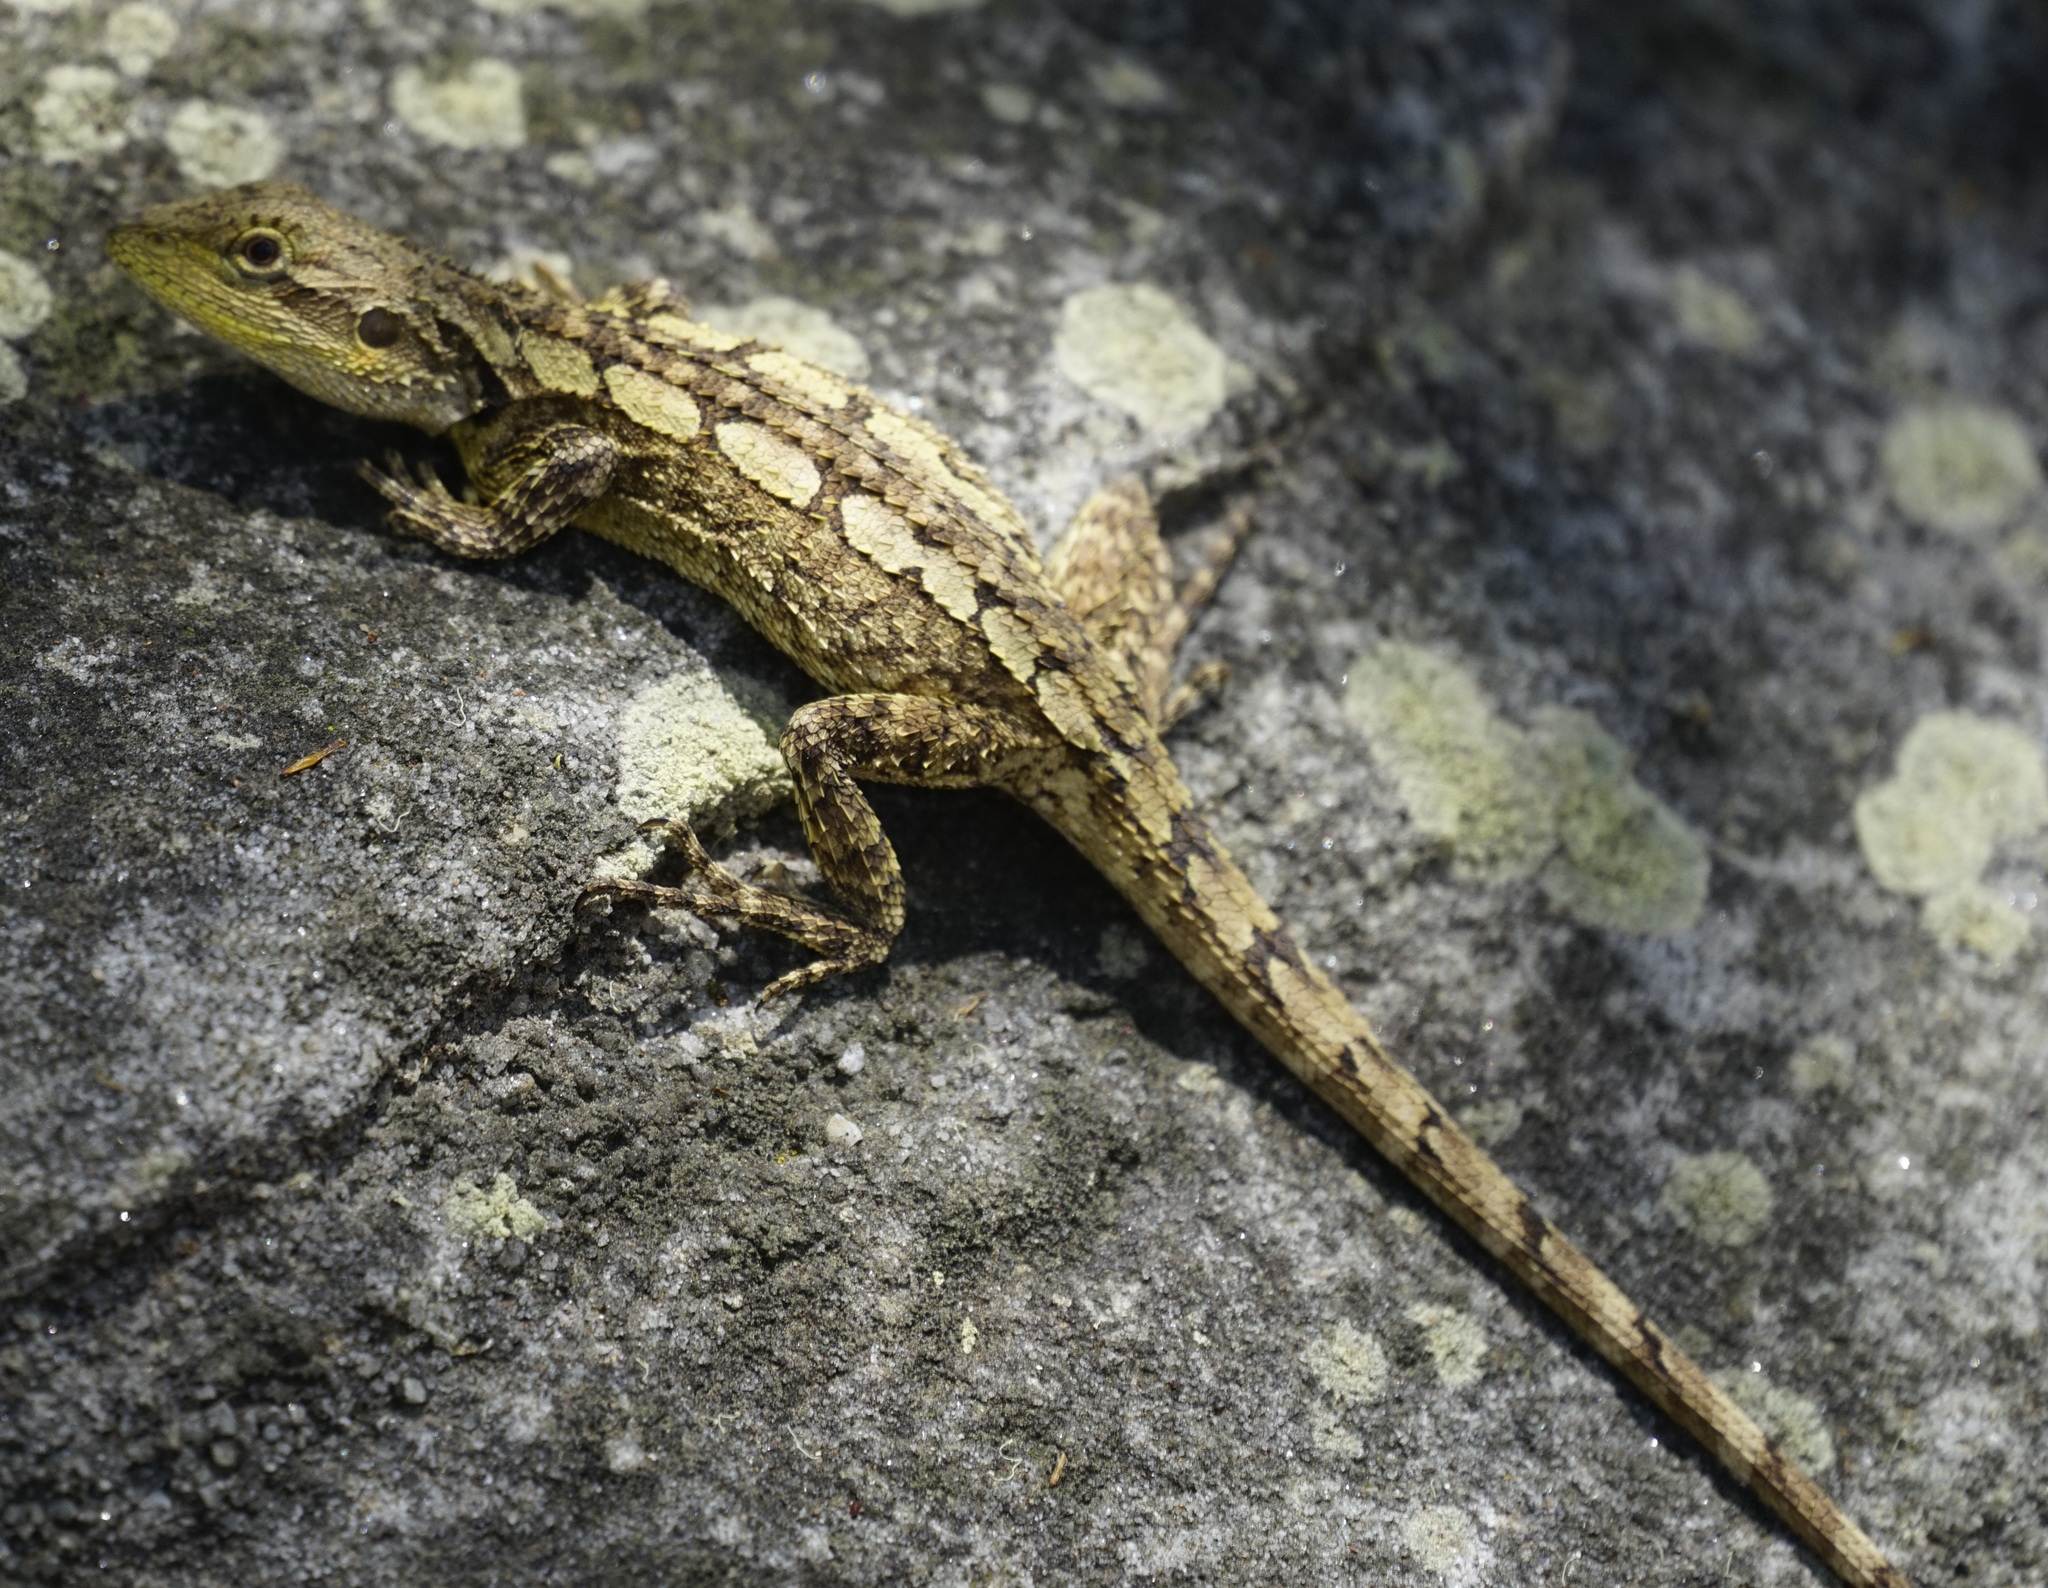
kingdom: Animalia
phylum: Chordata
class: Squamata
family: Agamidae
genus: Amphibolurus
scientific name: Amphibolurus muricatus
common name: Jacky lizard
